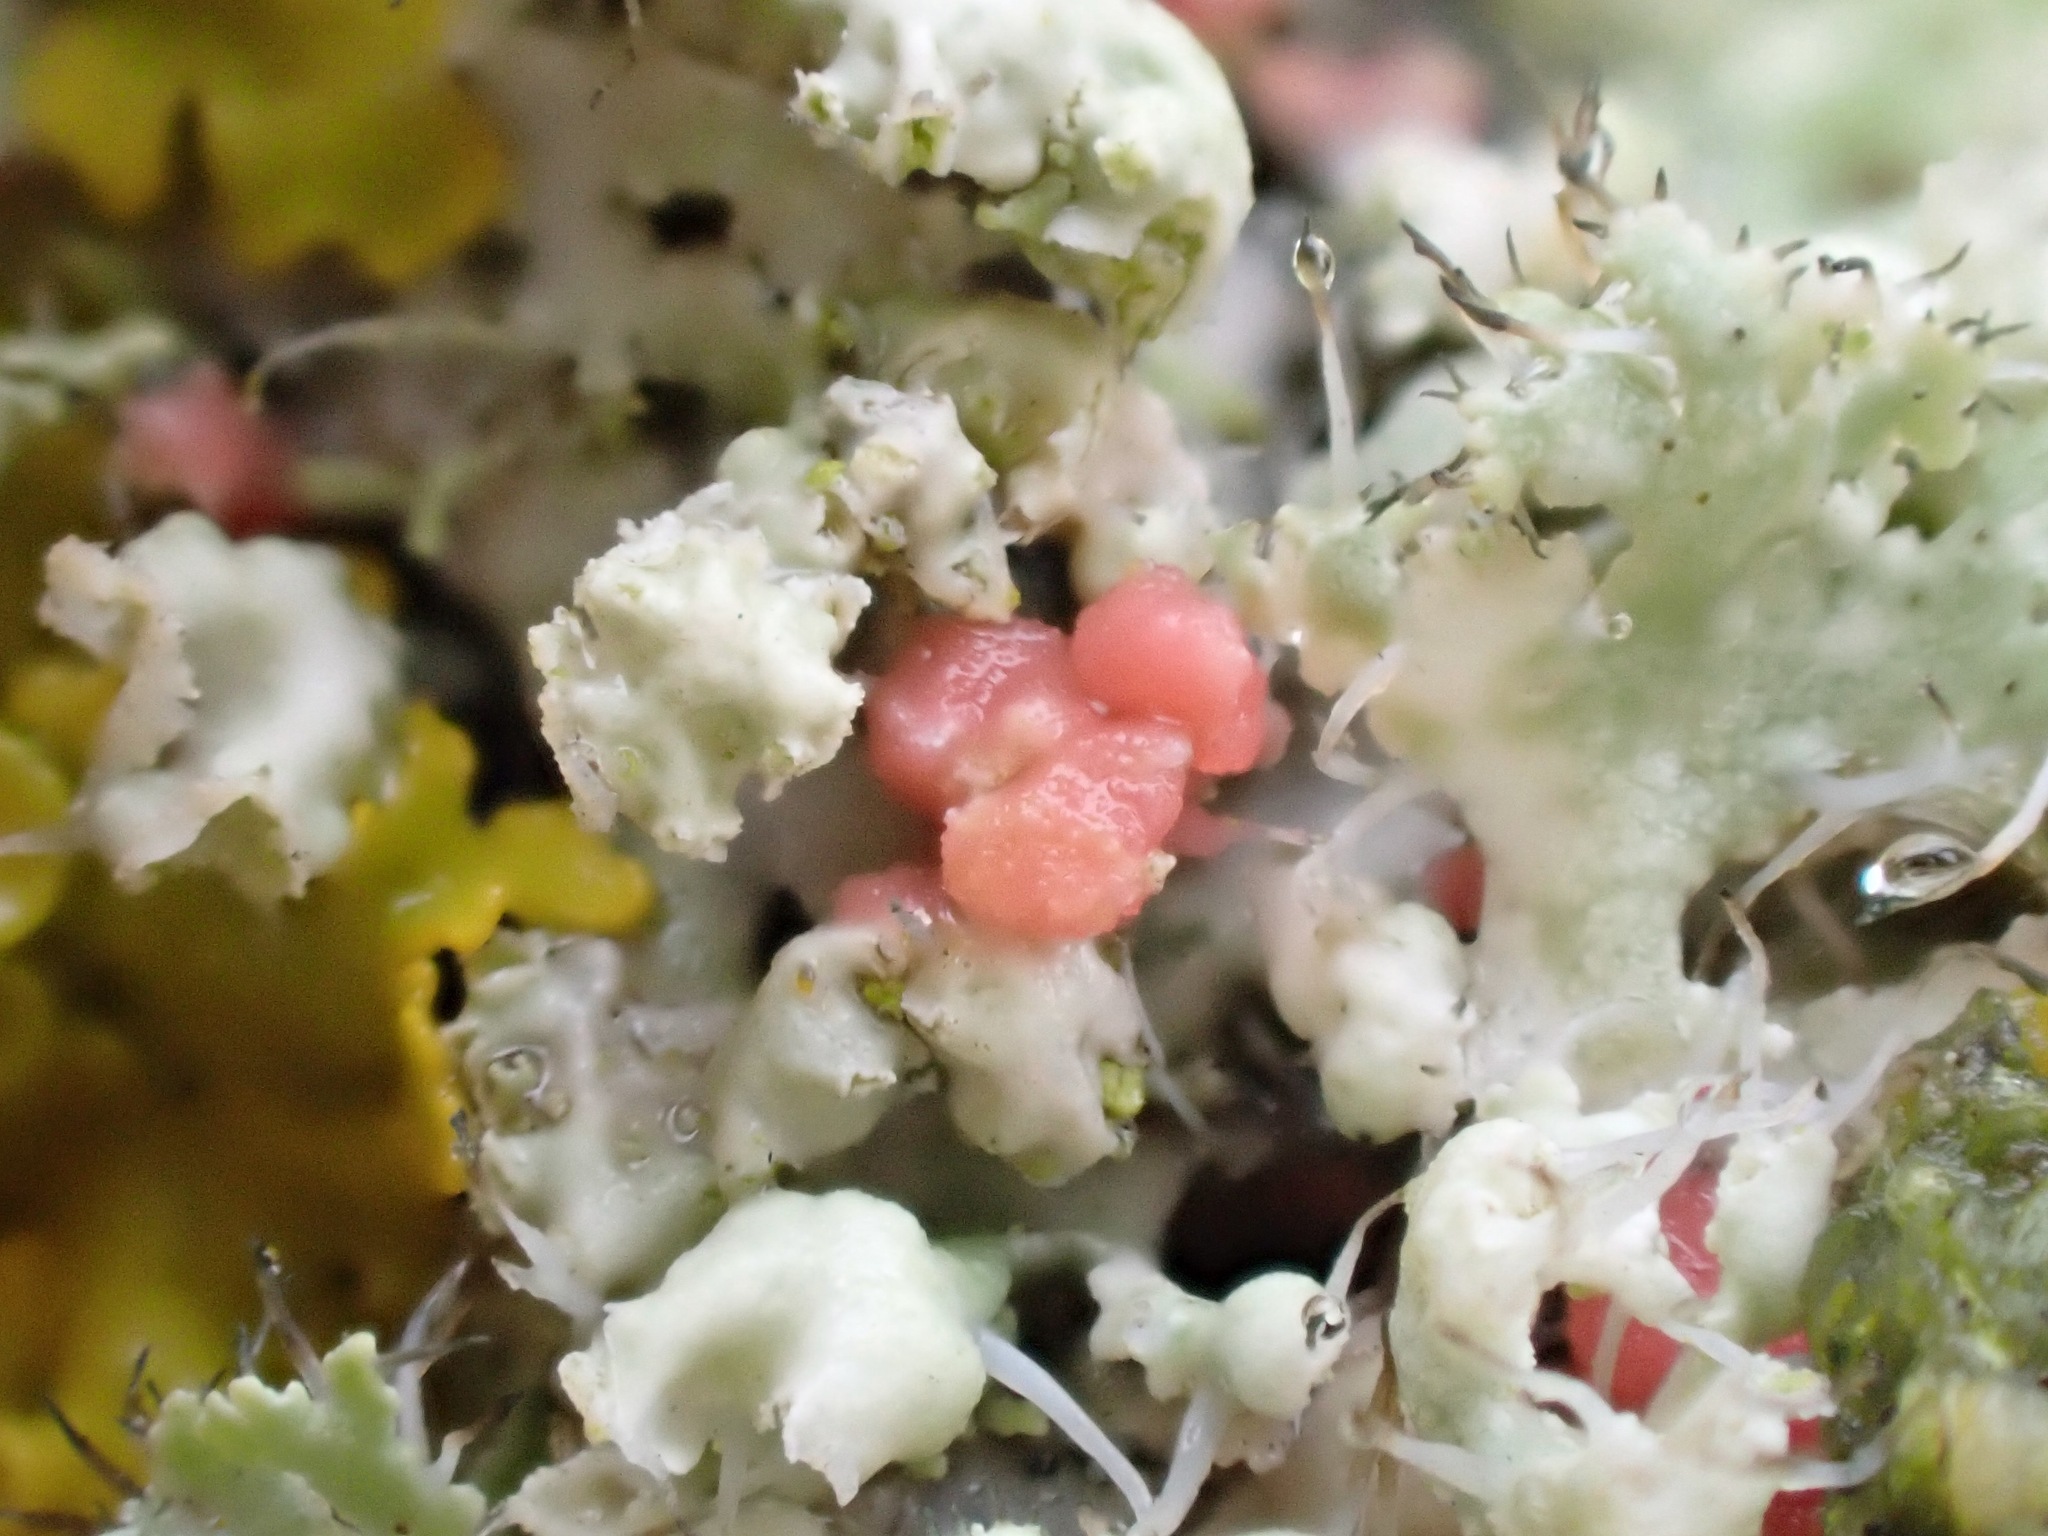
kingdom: Fungi
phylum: Ascomycota
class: Sordariomycetes
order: Hypocreales
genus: Illosporiopsis
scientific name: Illosporiopsis christiansenii
